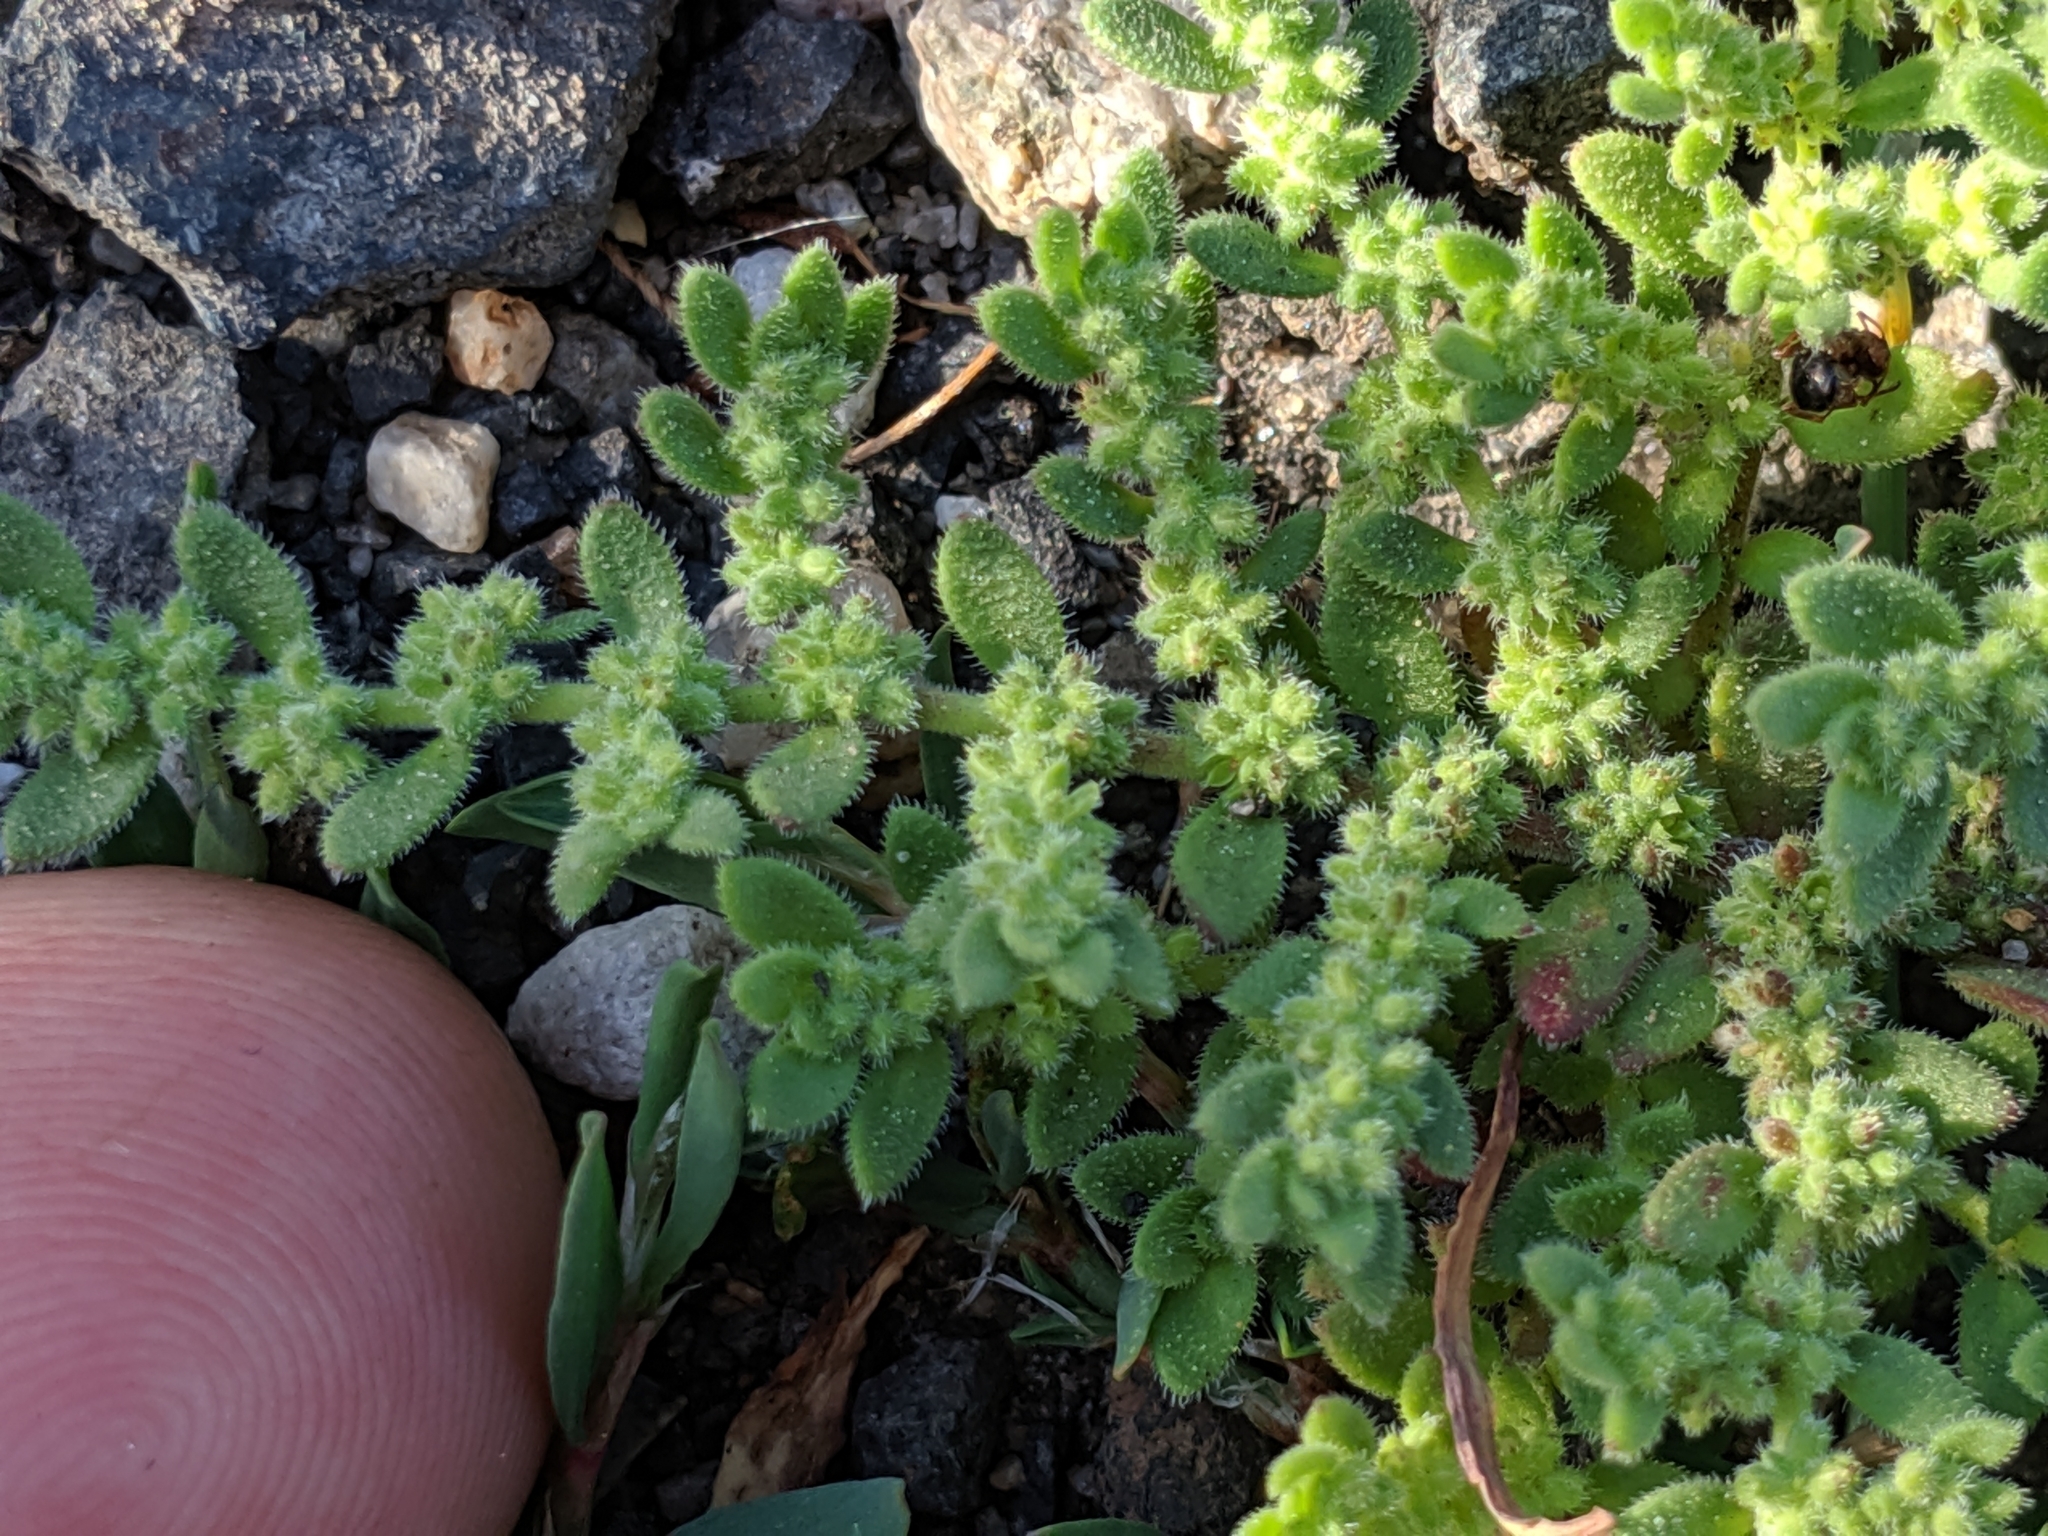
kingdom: Plantae
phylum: Tracheophyta
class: Magnoliopsida
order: Caryophyllales
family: Caryophyllaceae
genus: Herniaria
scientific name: Herniaria hirsuta
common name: Hairy rupturewort
